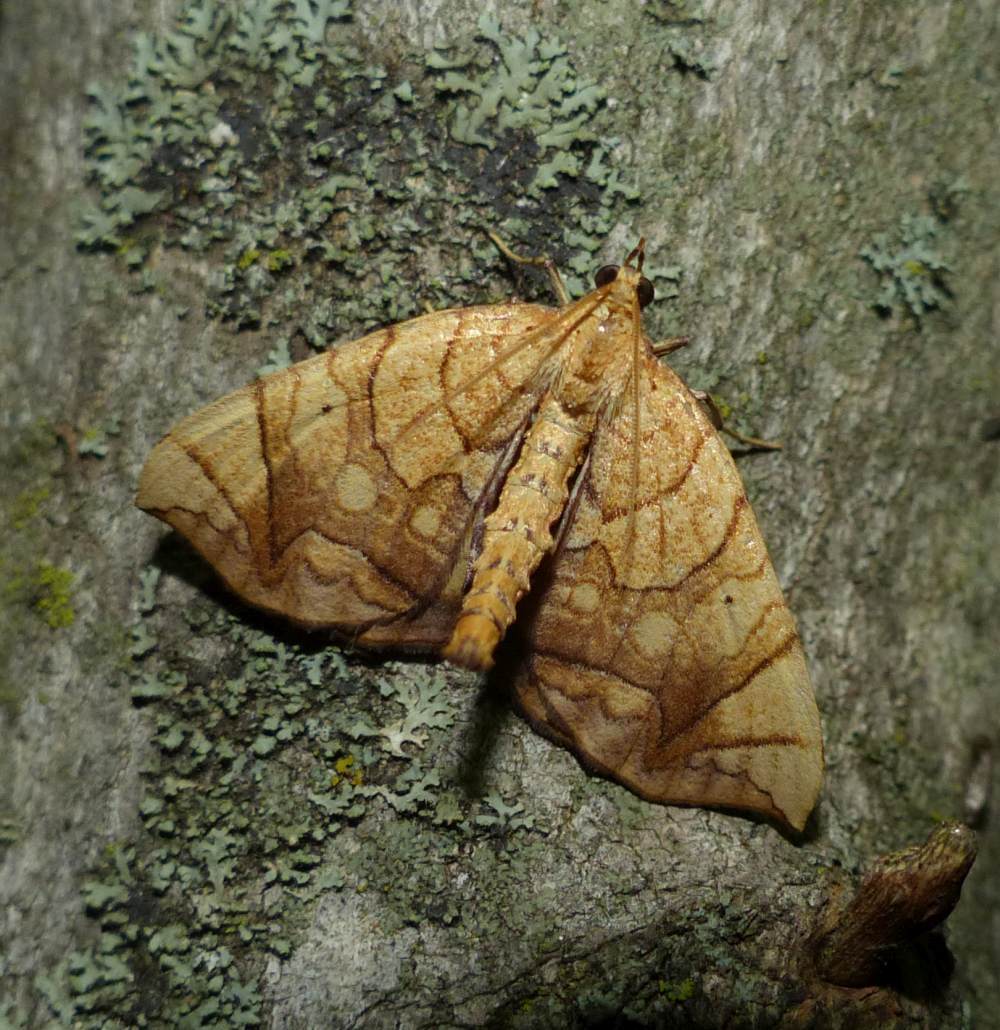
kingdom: Animalia
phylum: Arthropoda
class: Insecta
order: Lepidoptera
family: Geometridae
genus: Eulithis
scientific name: Eulithis
